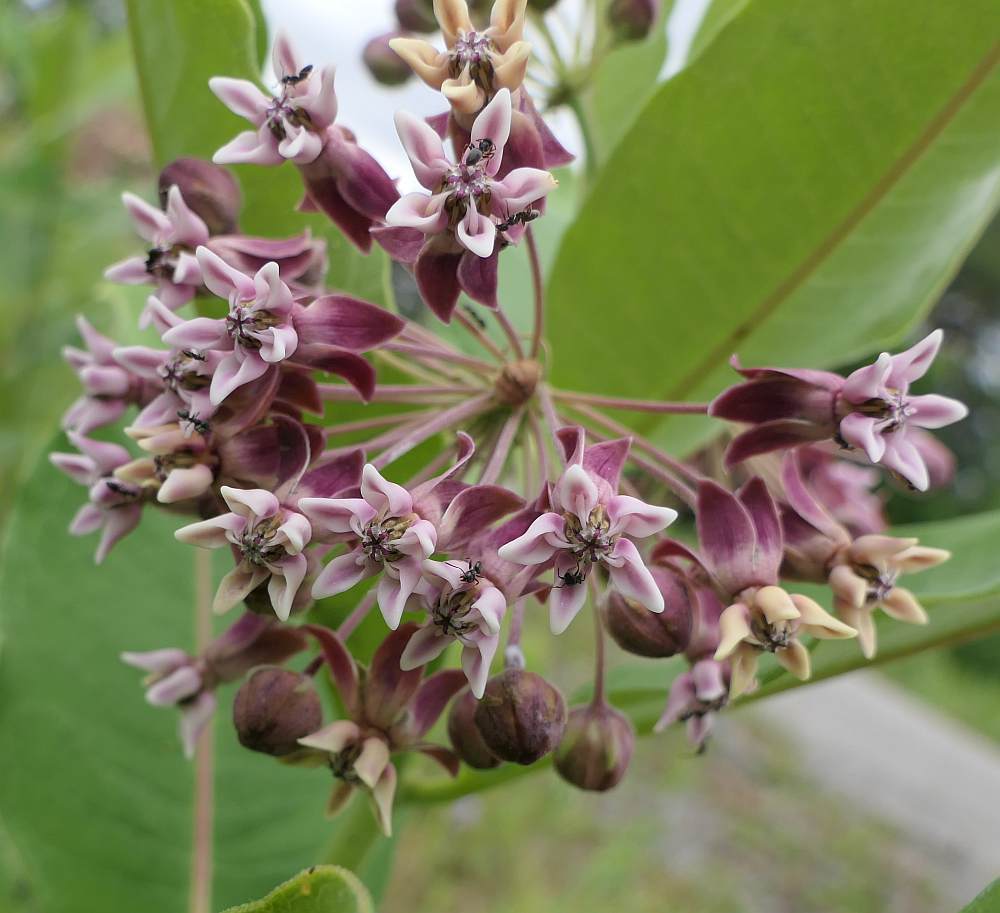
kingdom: Plantae
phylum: Tracheophyta
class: Magnoliopsida
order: Gentianales
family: Apocynaceae
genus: Asclepias
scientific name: Asclepias syriaca
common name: Common milkweed
